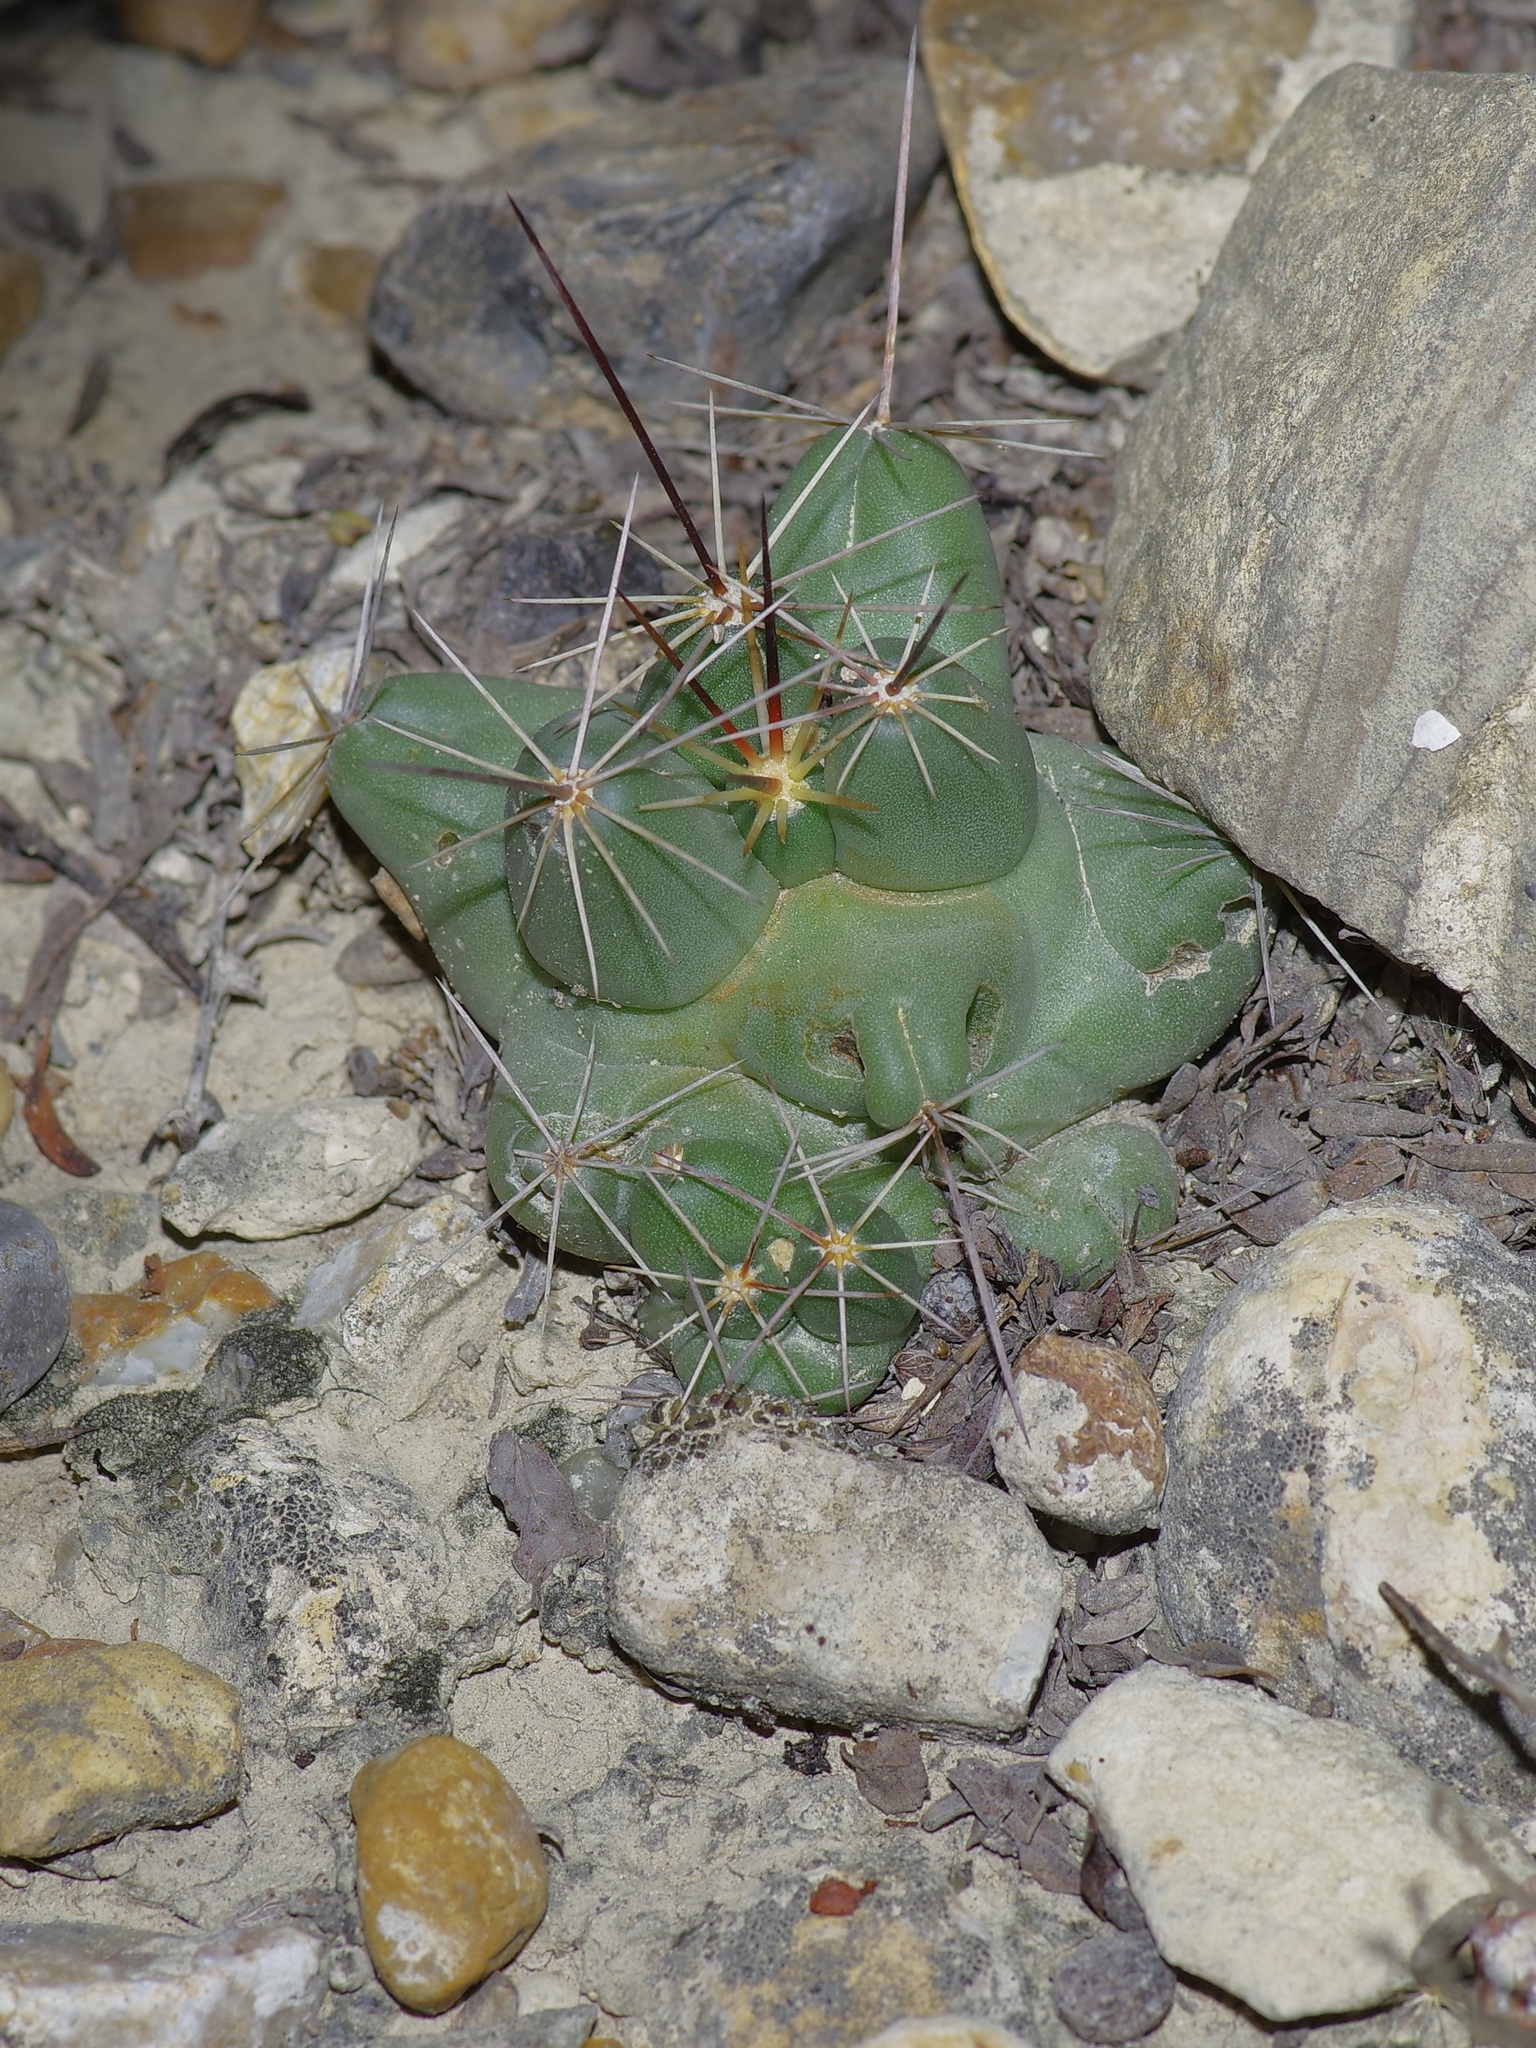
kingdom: Plantae
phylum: Tracheophyta
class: Magnoliopsida
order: Caryophyllales
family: Cactaceae
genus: Pelecyphora
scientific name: Pelecyphora macromeris
